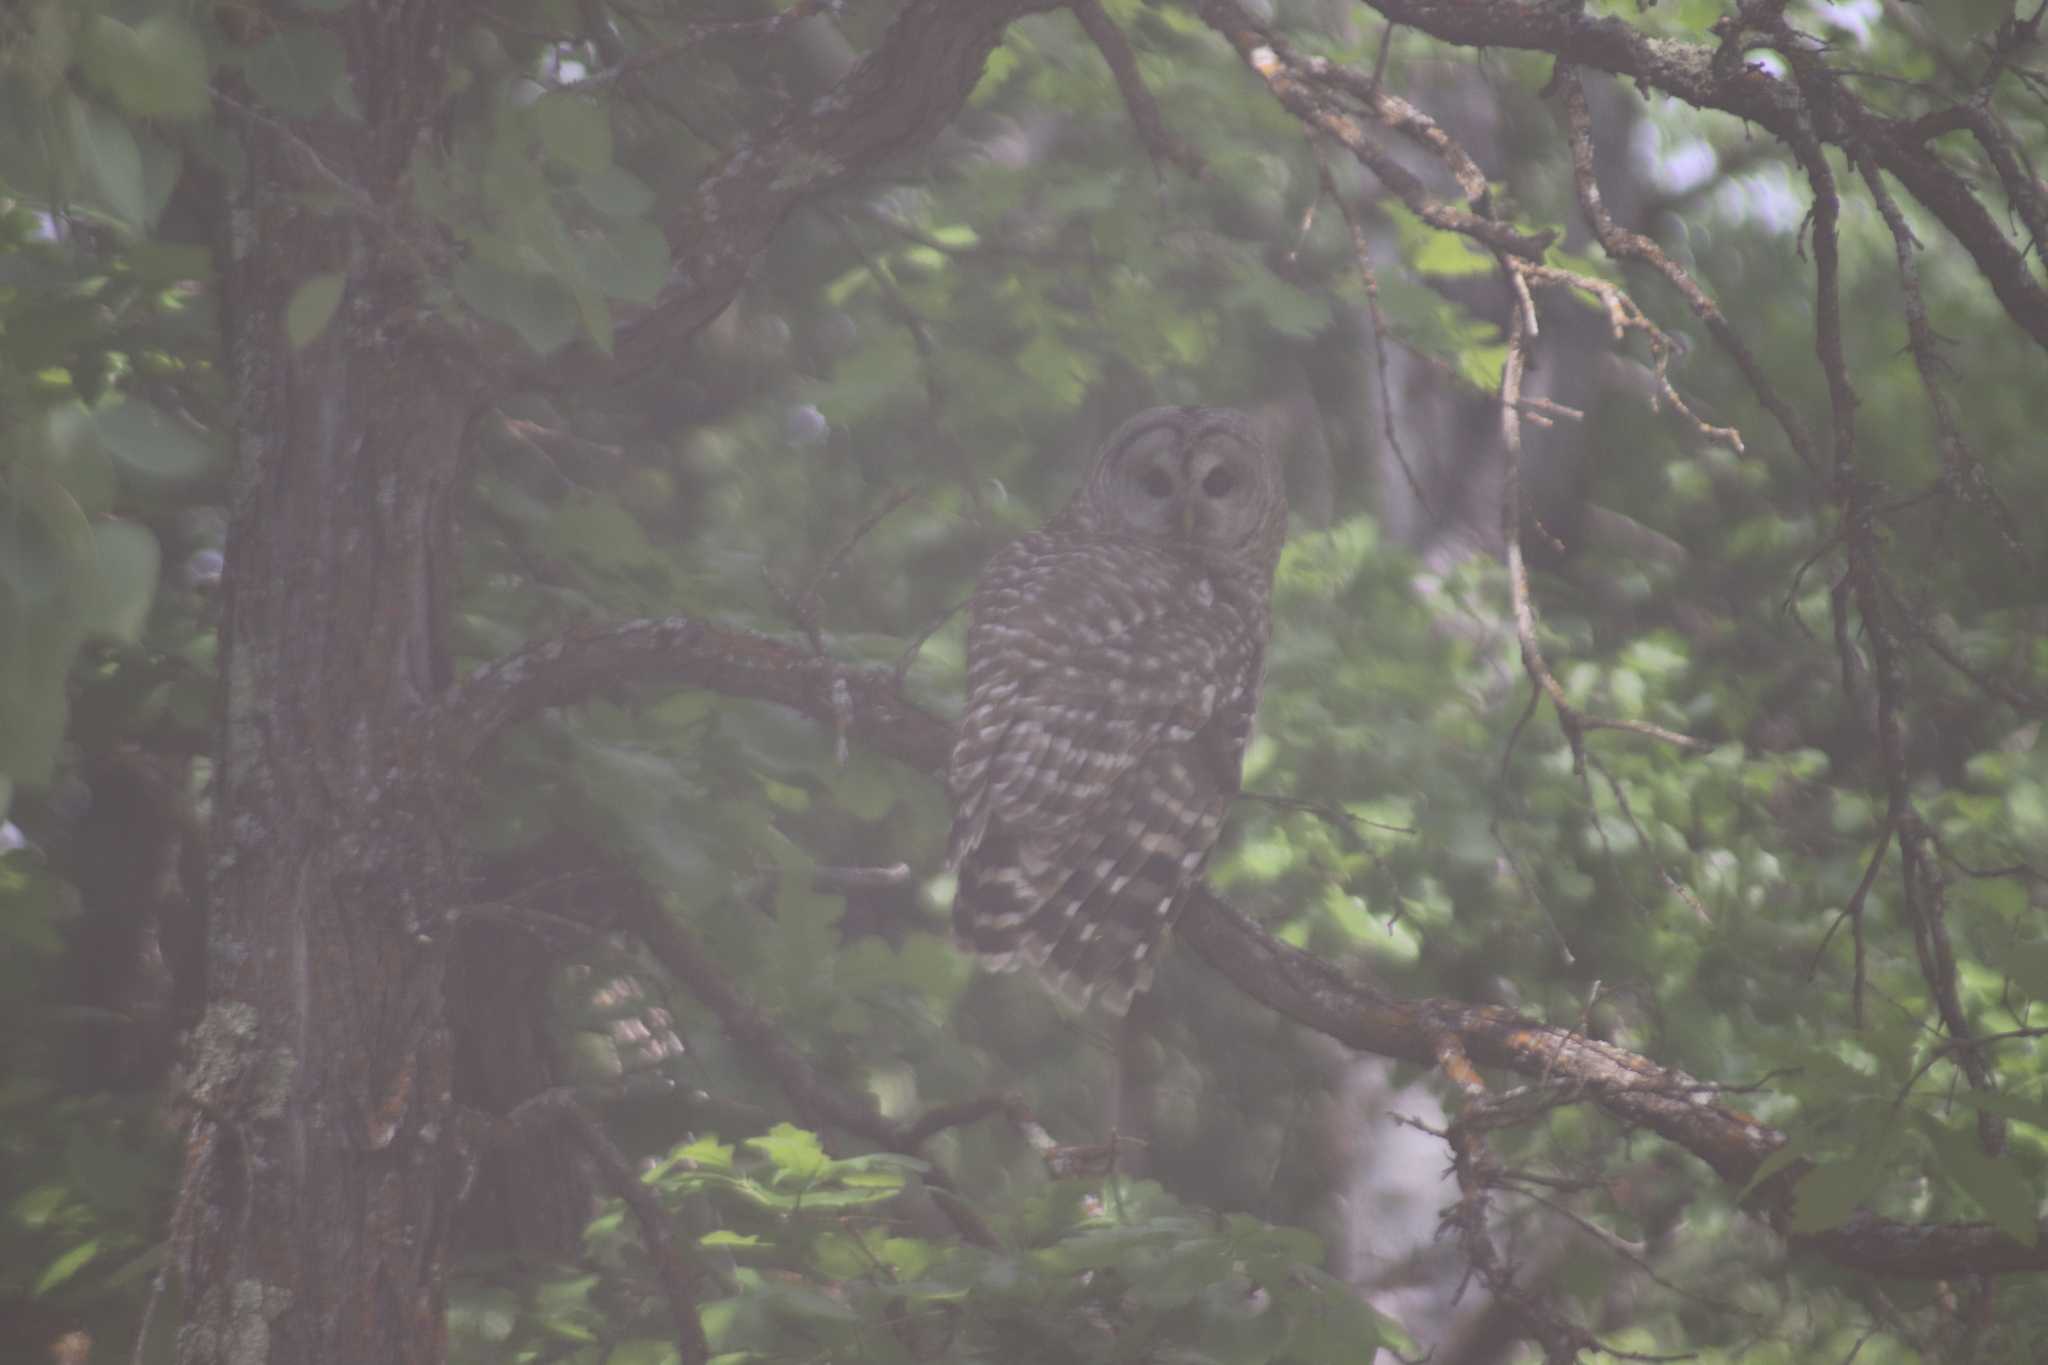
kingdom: Animalia
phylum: Chordata
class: Aves
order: Strigiformes
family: Strigidae
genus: Strix
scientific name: Strix varia
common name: Barred owl
